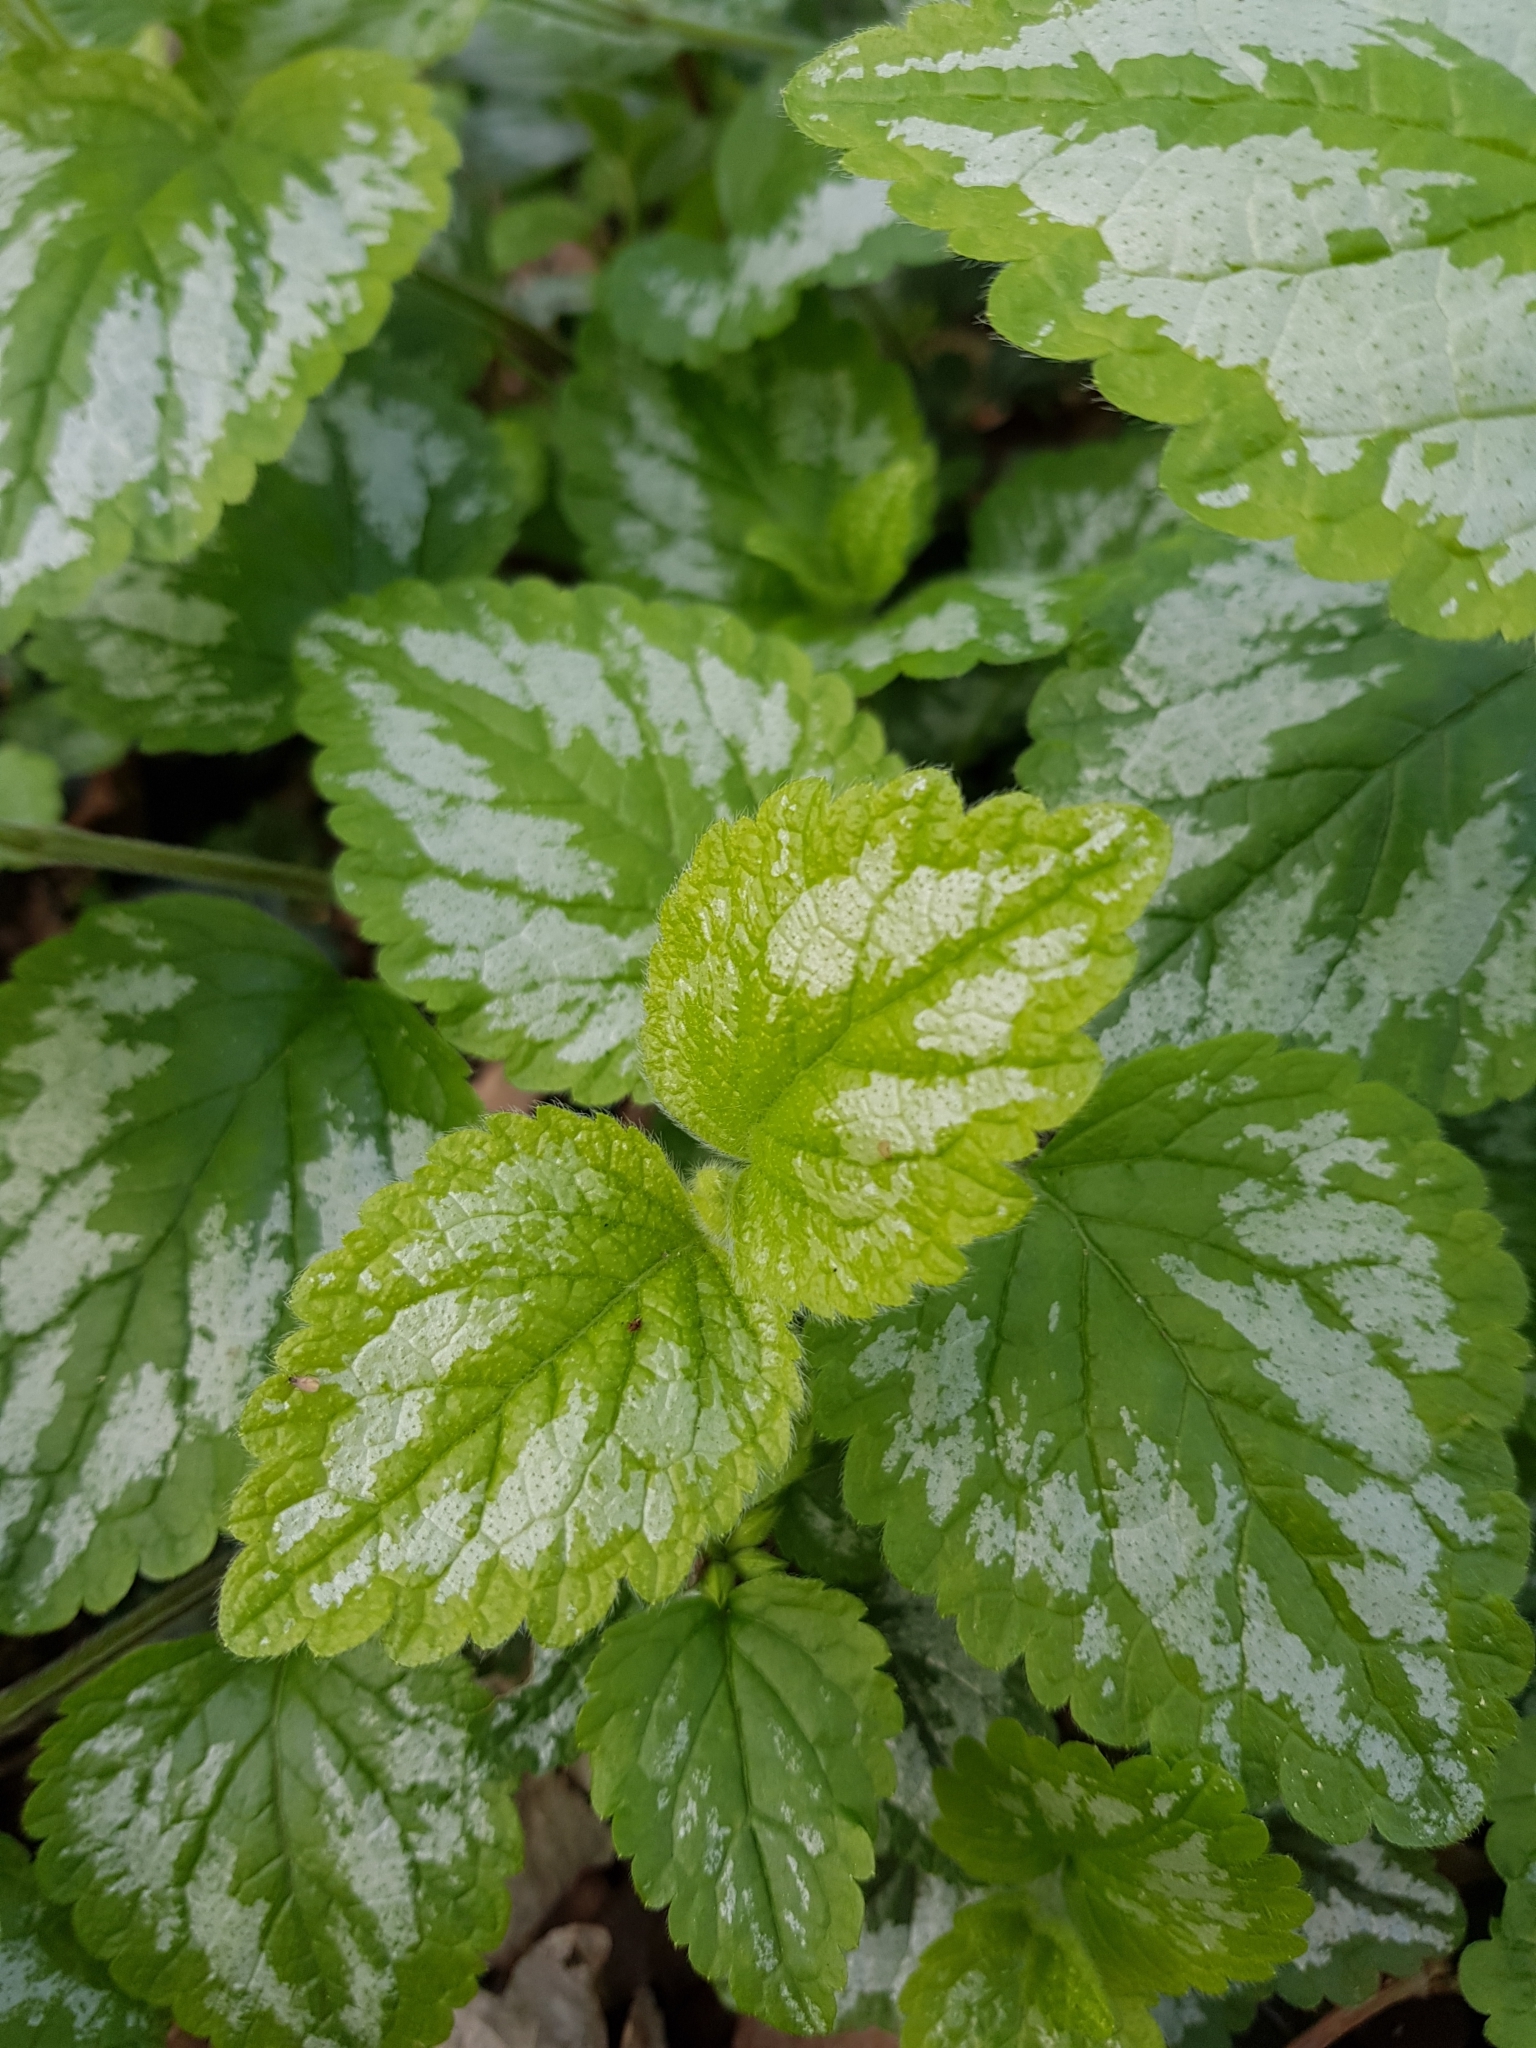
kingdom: Plantae
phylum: Tracheophyta
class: Magnoliopsida
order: Lamiales
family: Lamiaceae
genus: Lamium
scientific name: Lamium galeobdolon
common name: Yellow archangel
